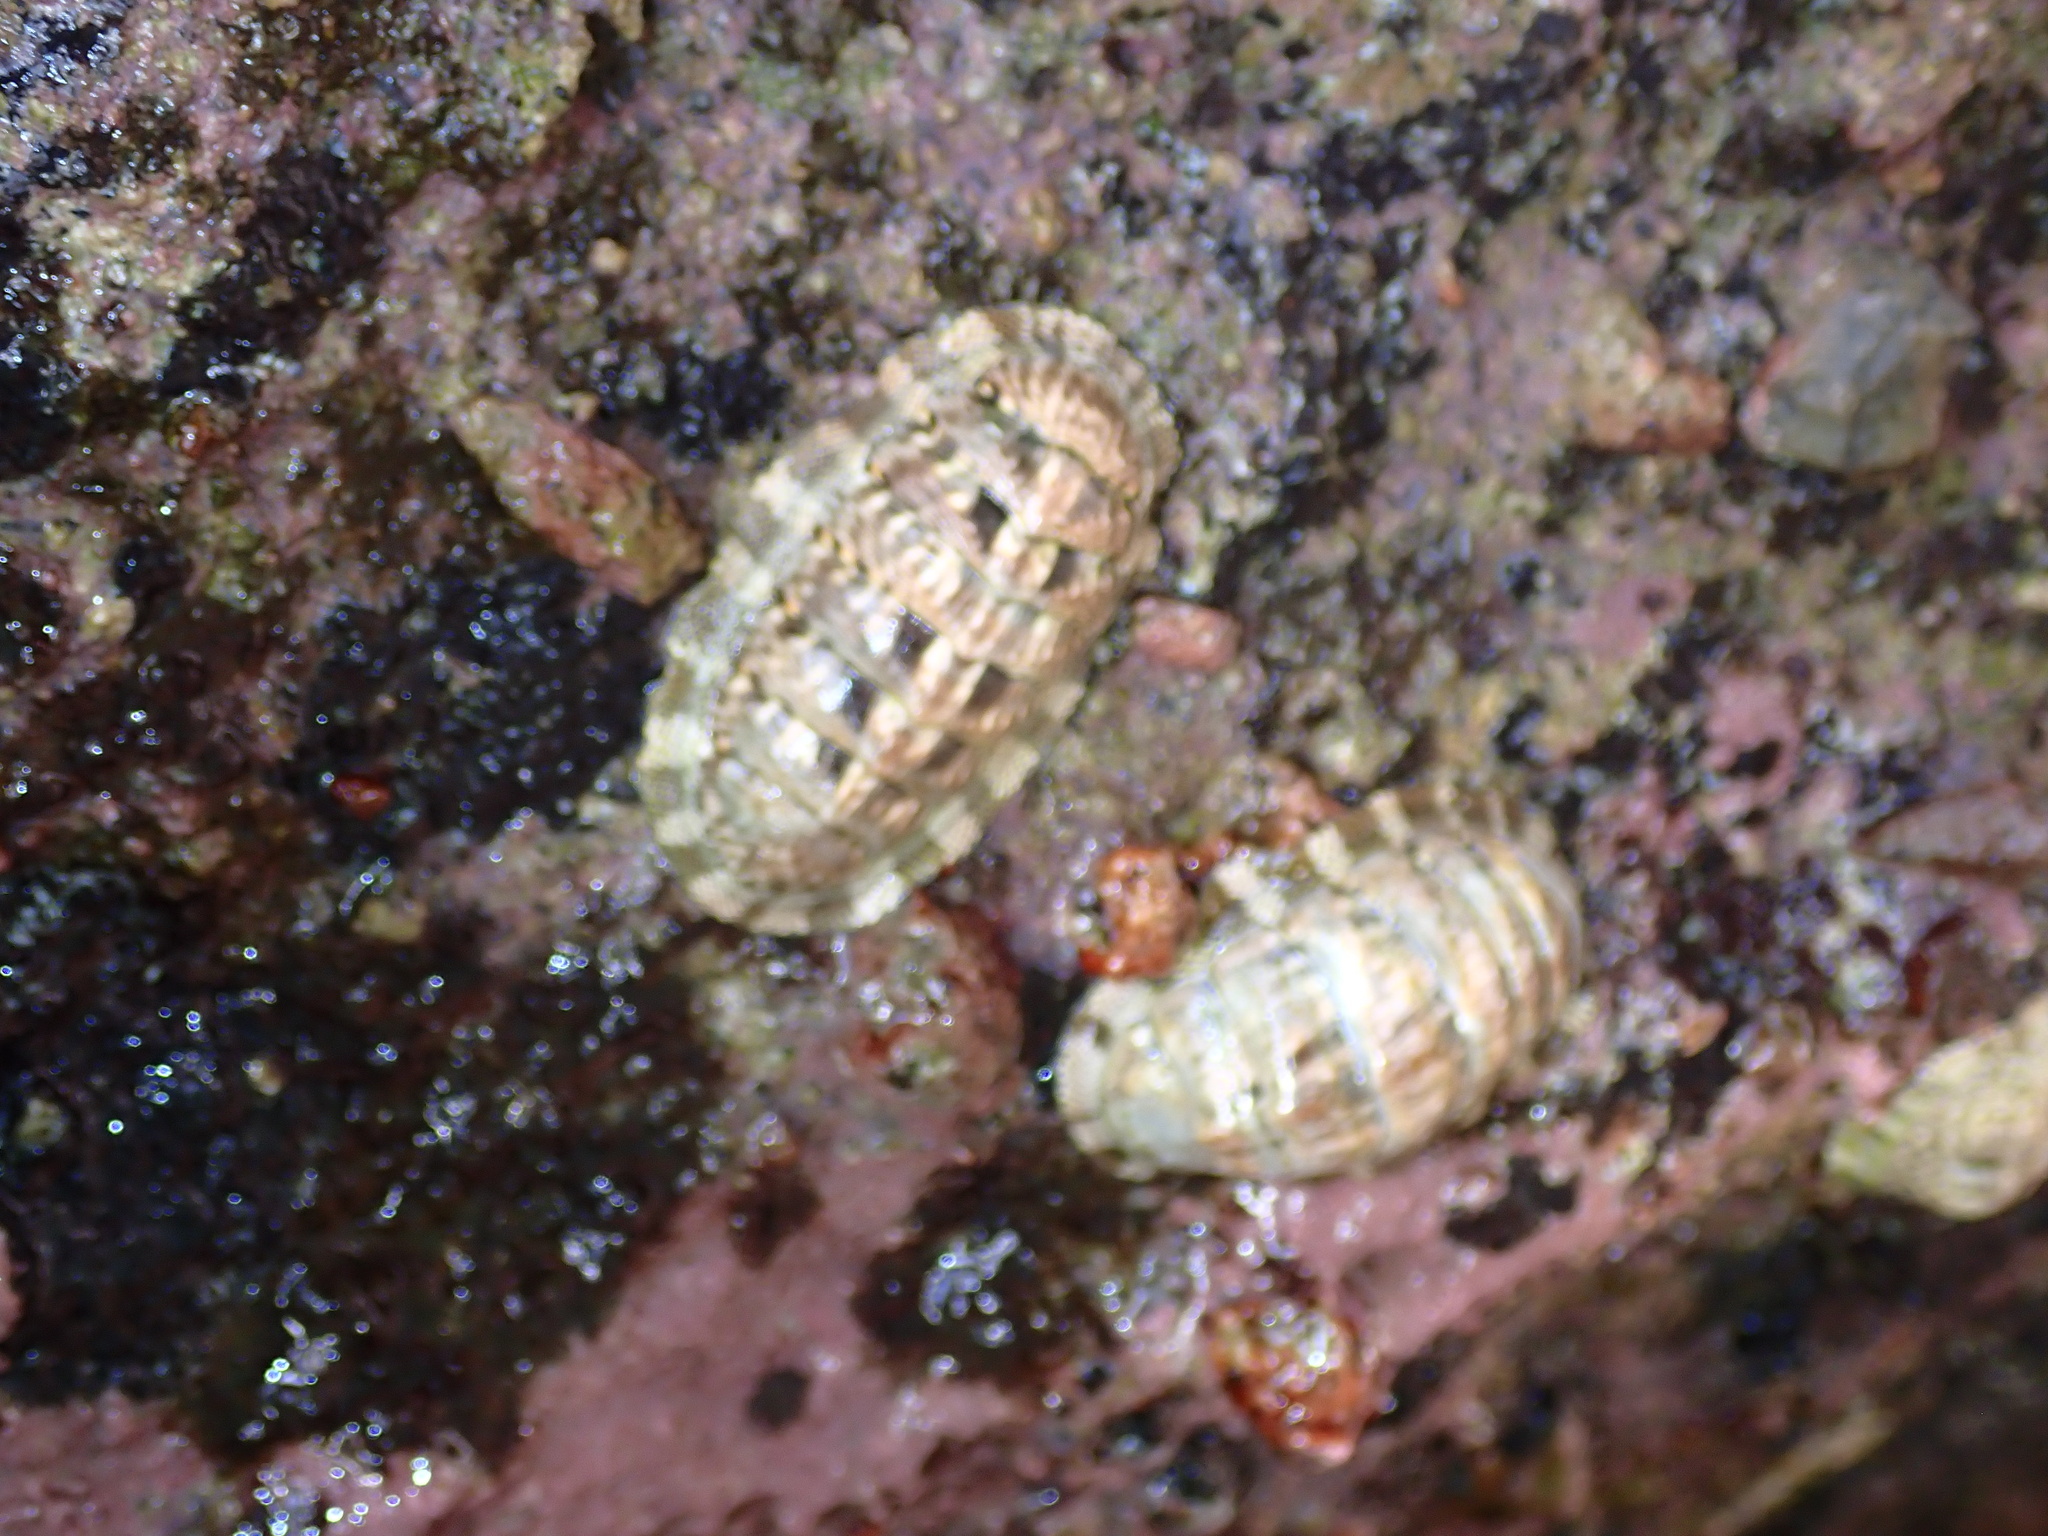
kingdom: Animalia
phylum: Mollusca
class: Polyplacophora
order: Chitonida
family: Chitonidae
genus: Chiton
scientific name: Chiton squamosus
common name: Squamose chiton
